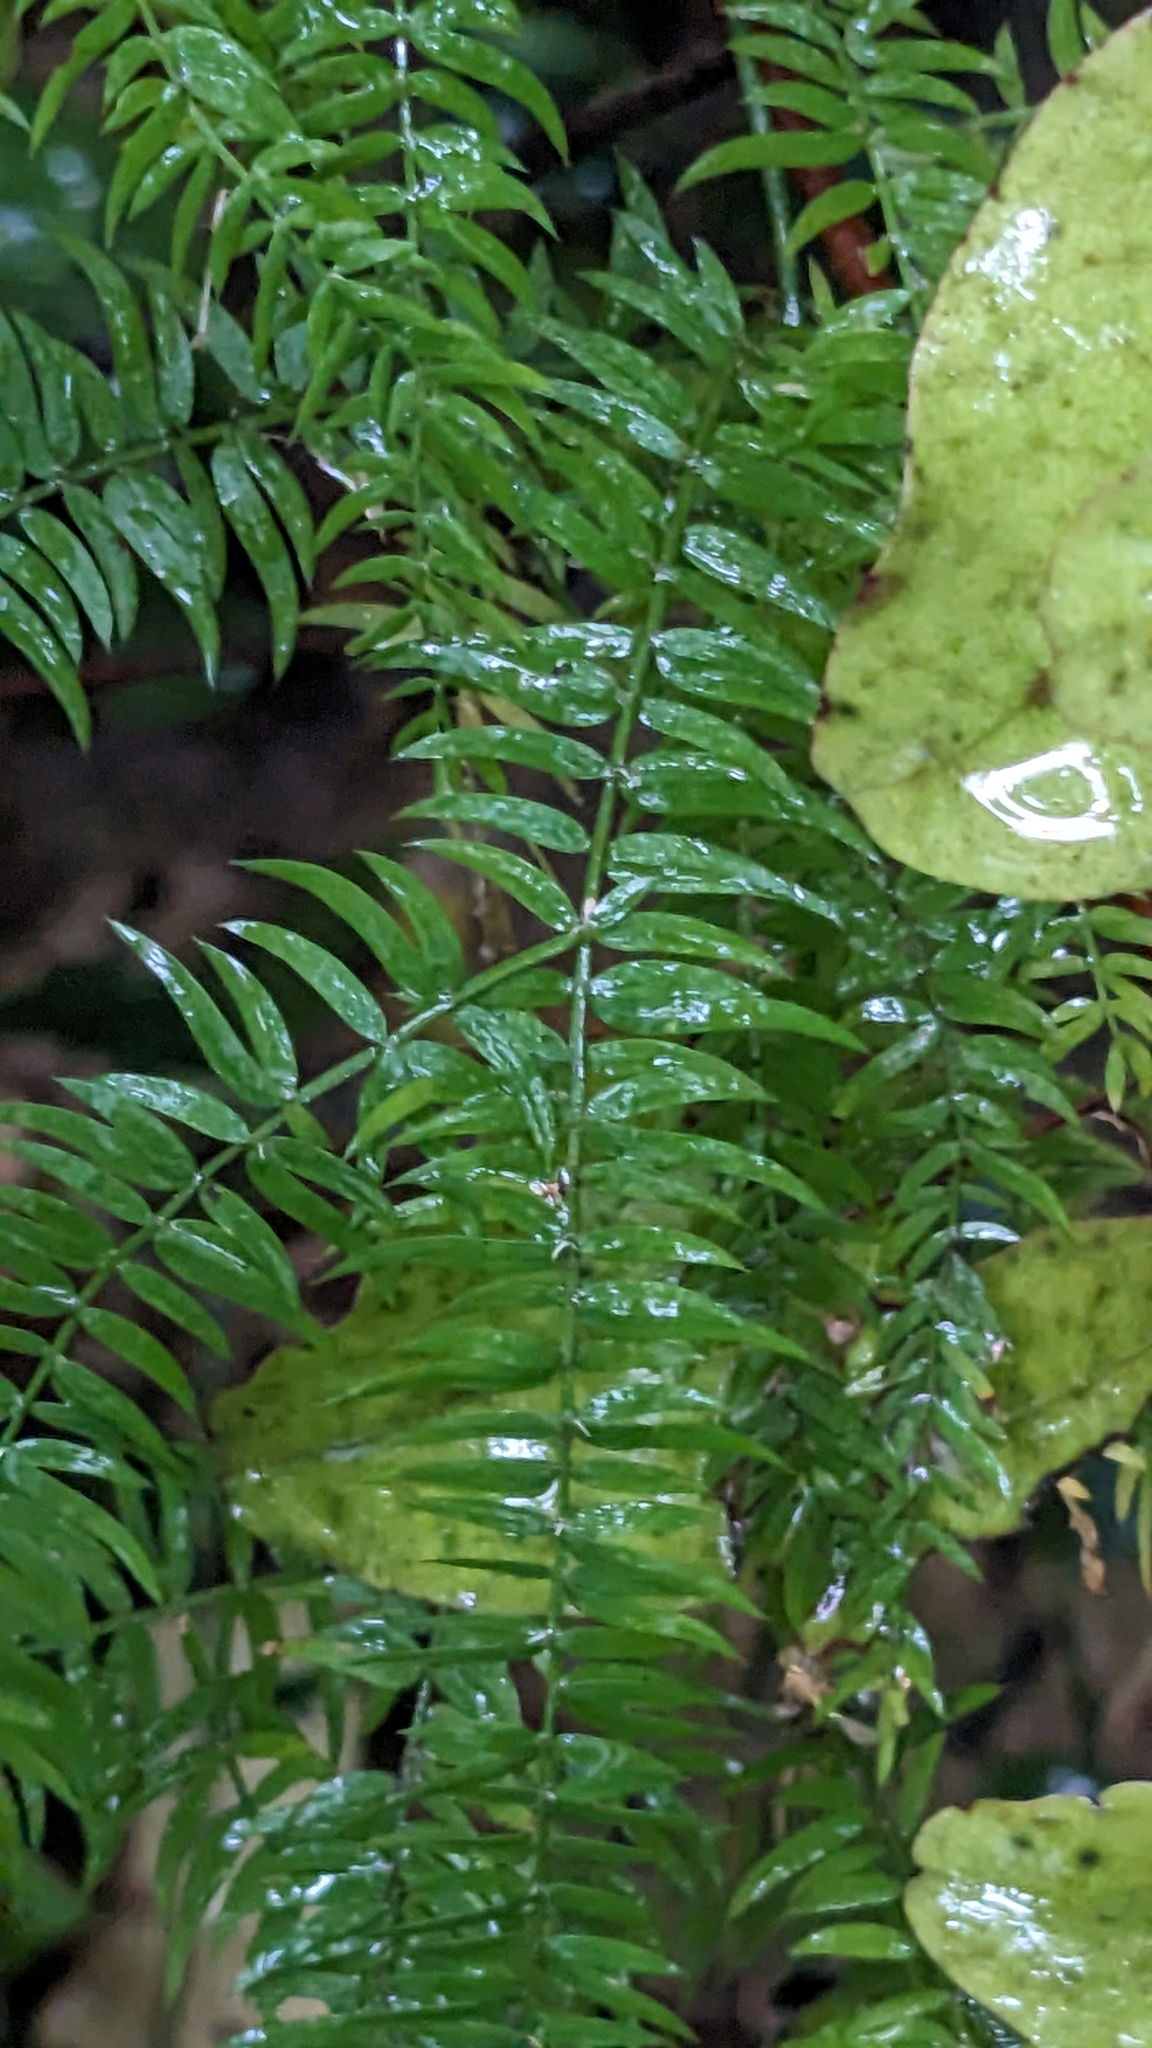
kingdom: Plantae
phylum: Tracheophyta
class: Liliopsida
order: Asparagales
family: Asparagaceae
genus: Asparagus
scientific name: Asparagus scandens
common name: Asparagus-fern
